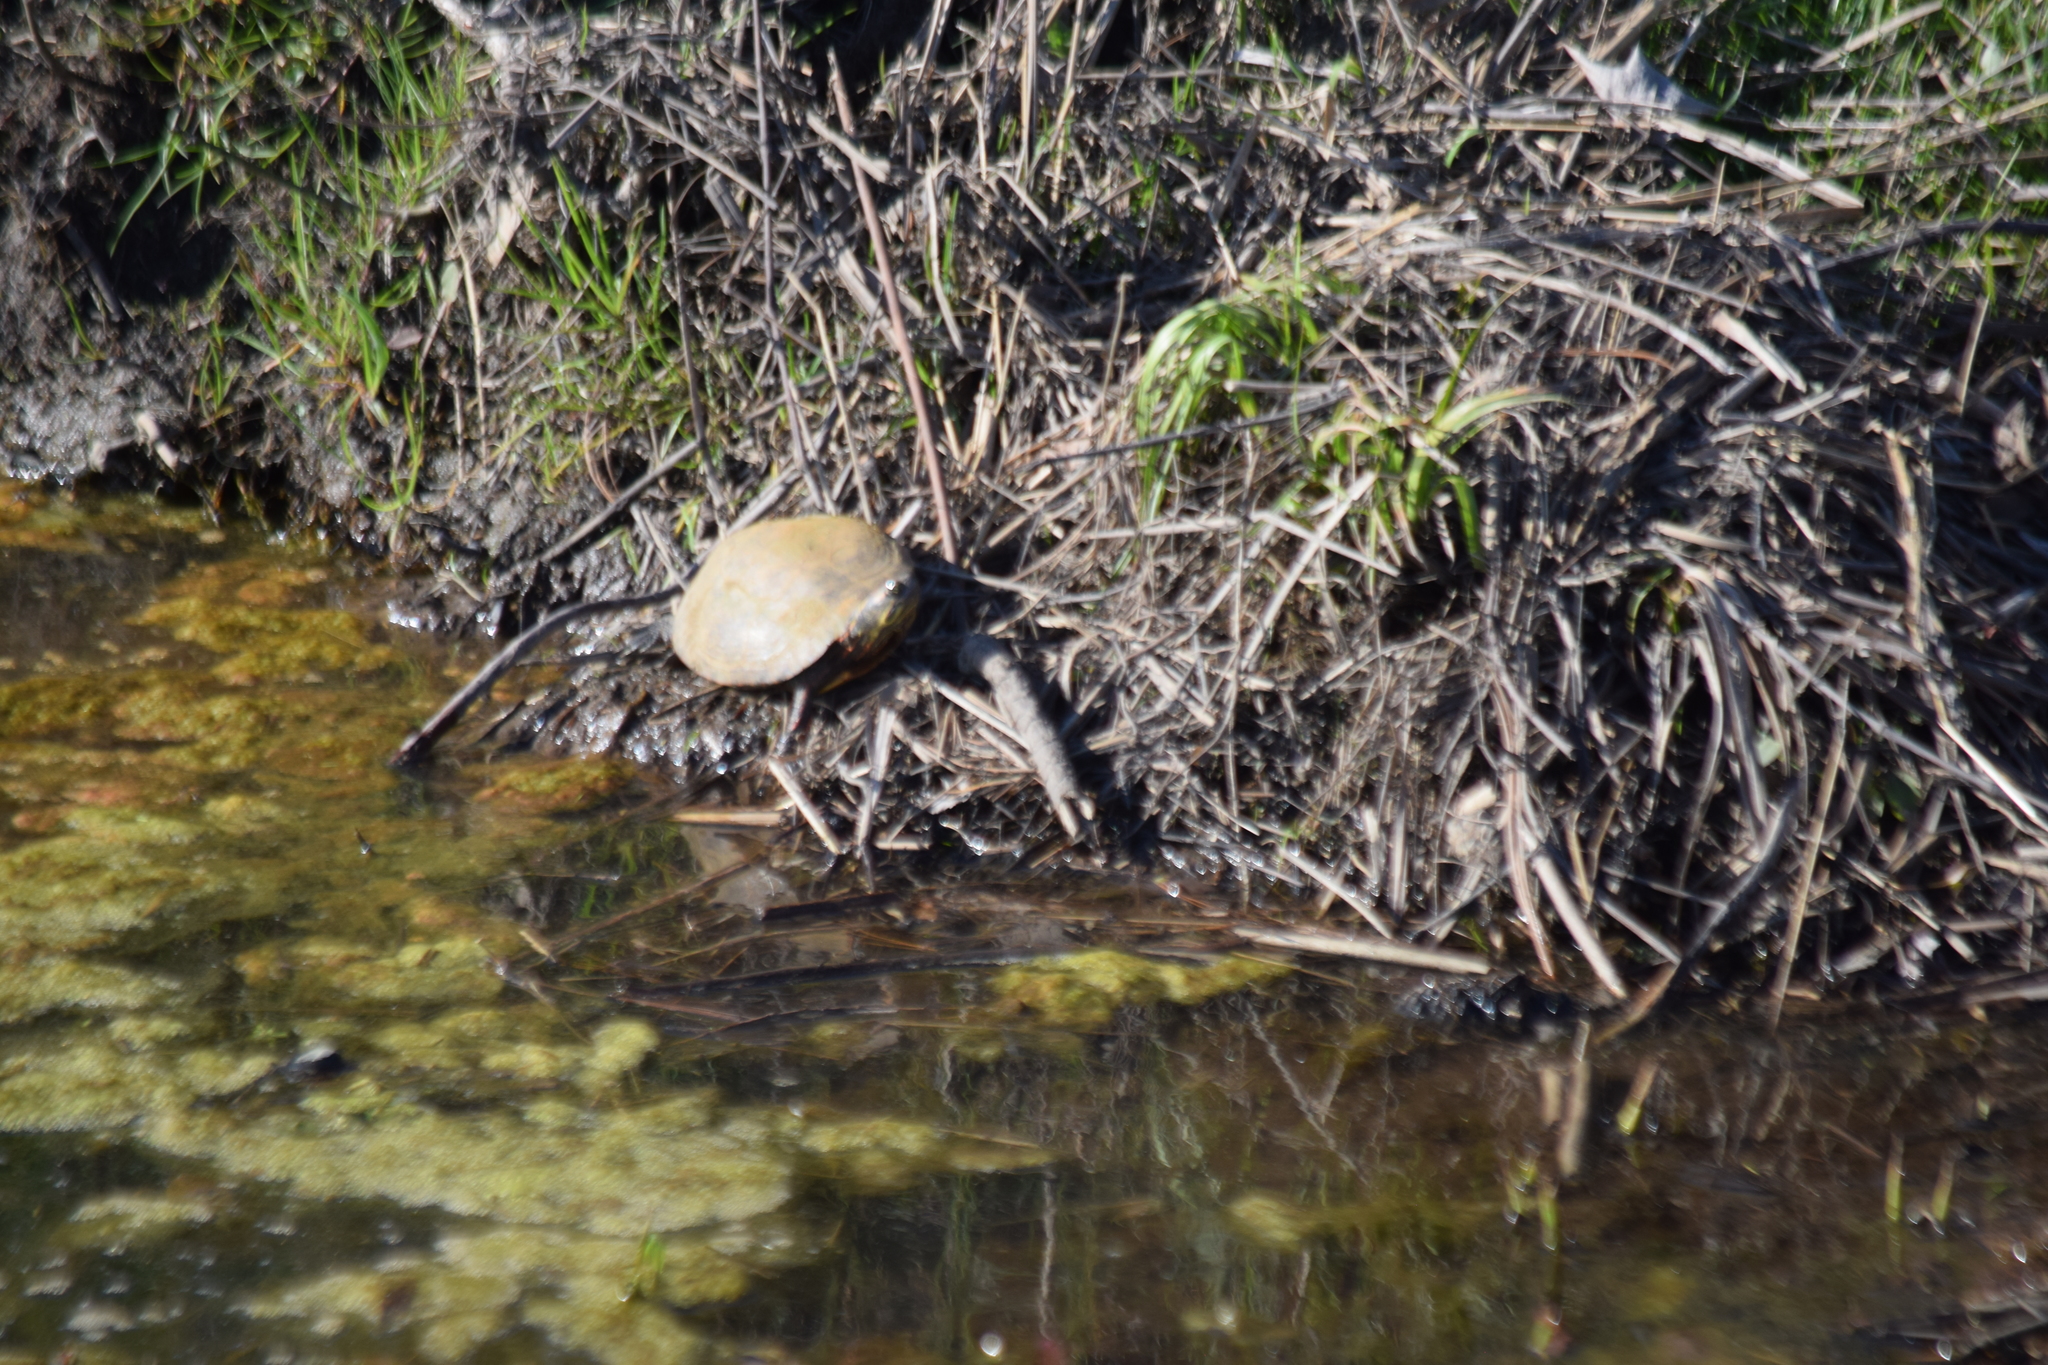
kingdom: Animalia
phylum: Chordata
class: Testudines
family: Emydidae
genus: Chrysemys
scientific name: Chrysemys picta
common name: Painted turtle
